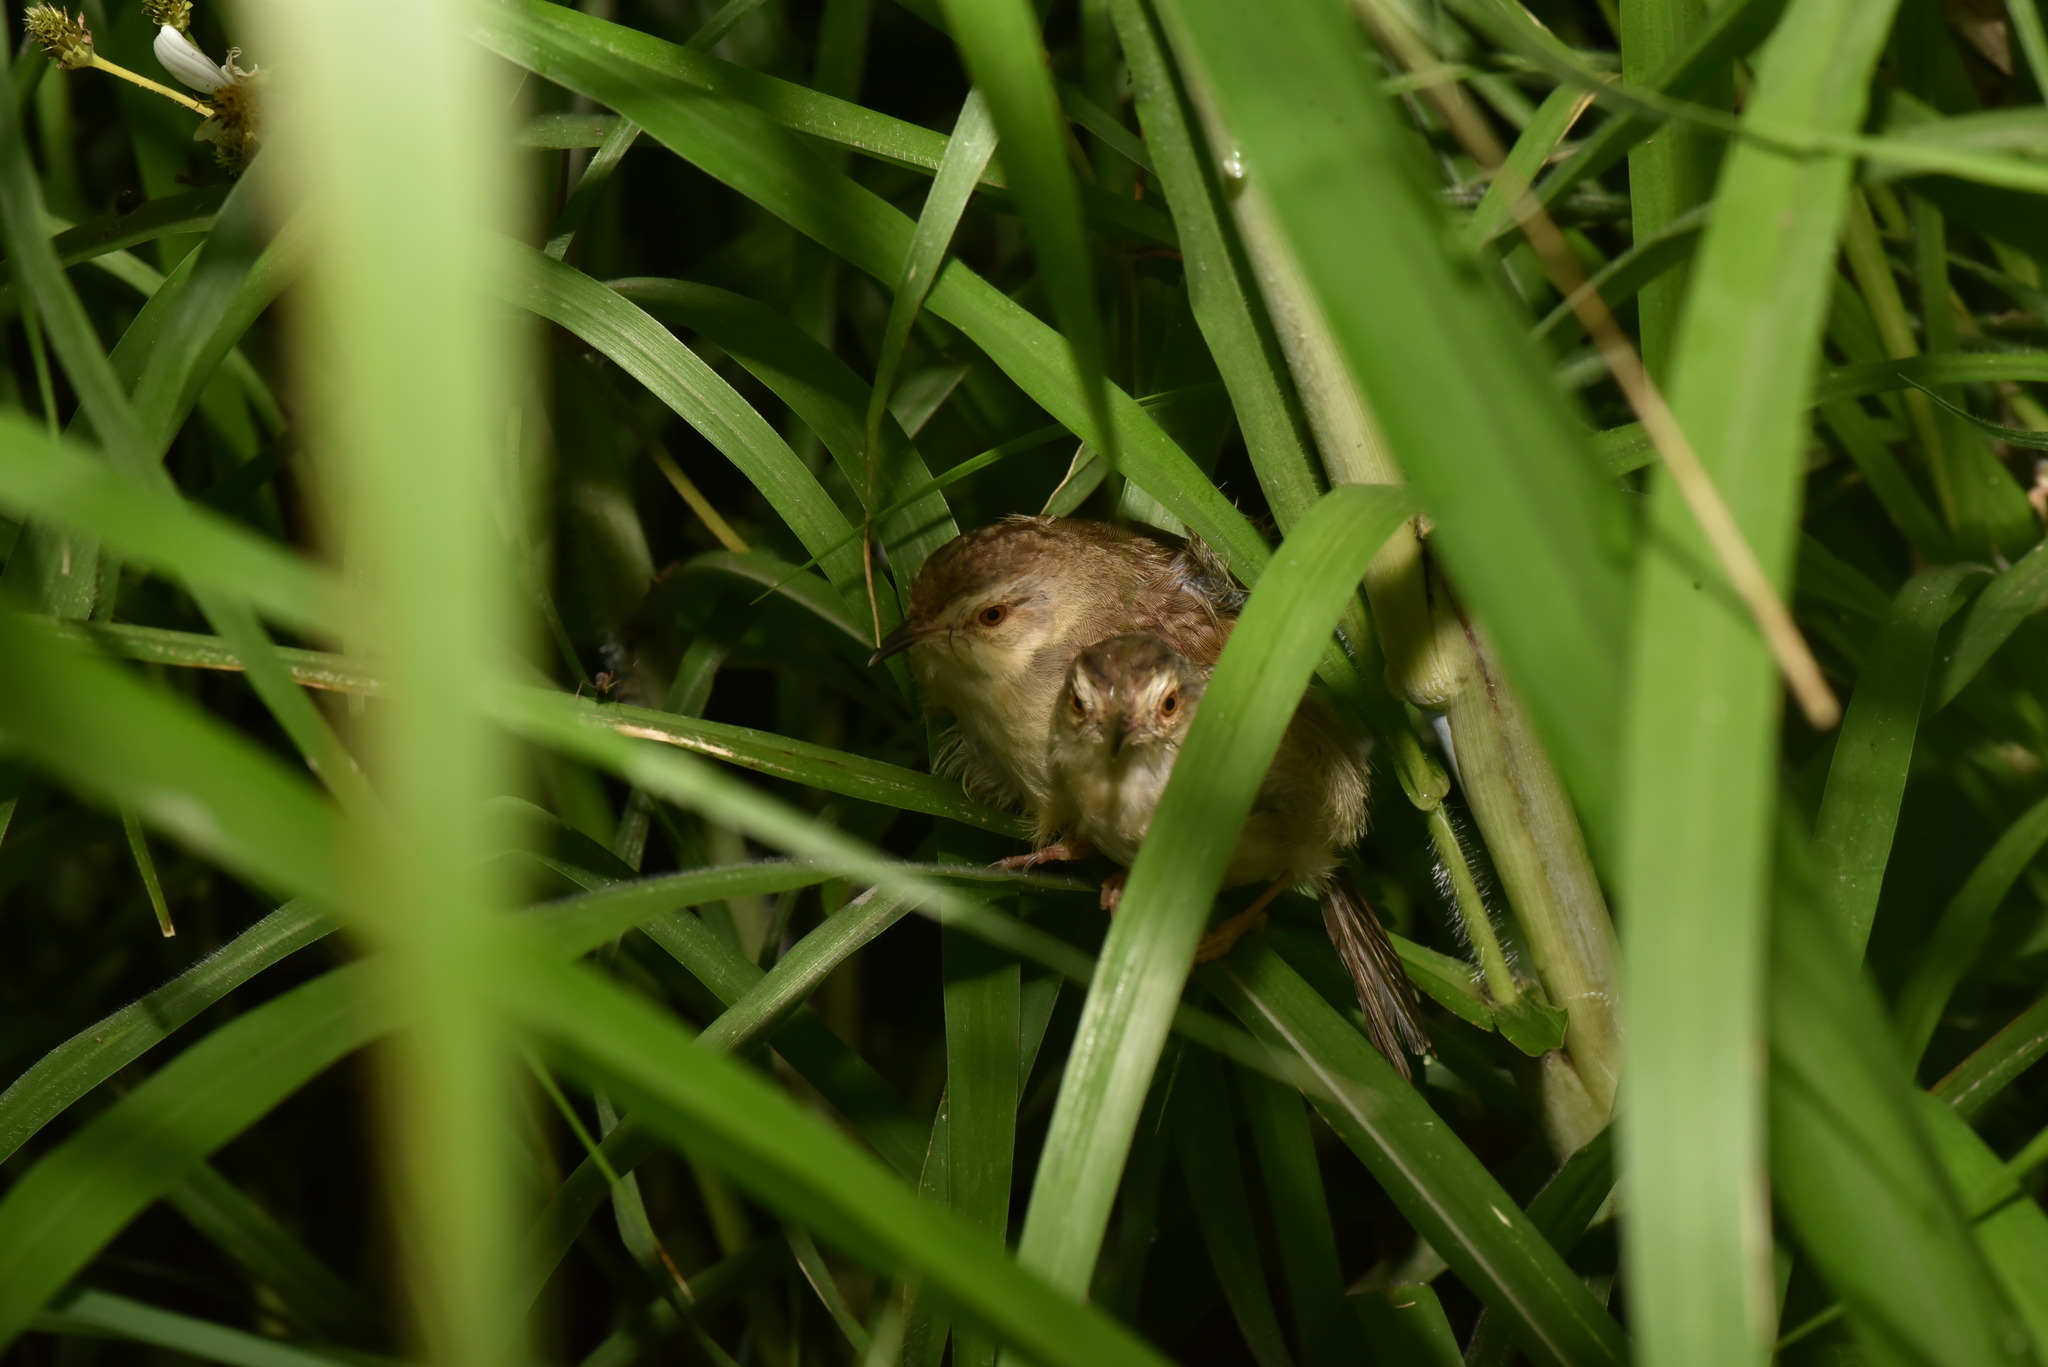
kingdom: Animalia
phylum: Chordata
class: Aves
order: Passeriformes
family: Cisticolidae
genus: Prinia
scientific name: Prinia inornata
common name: Plain prinia
